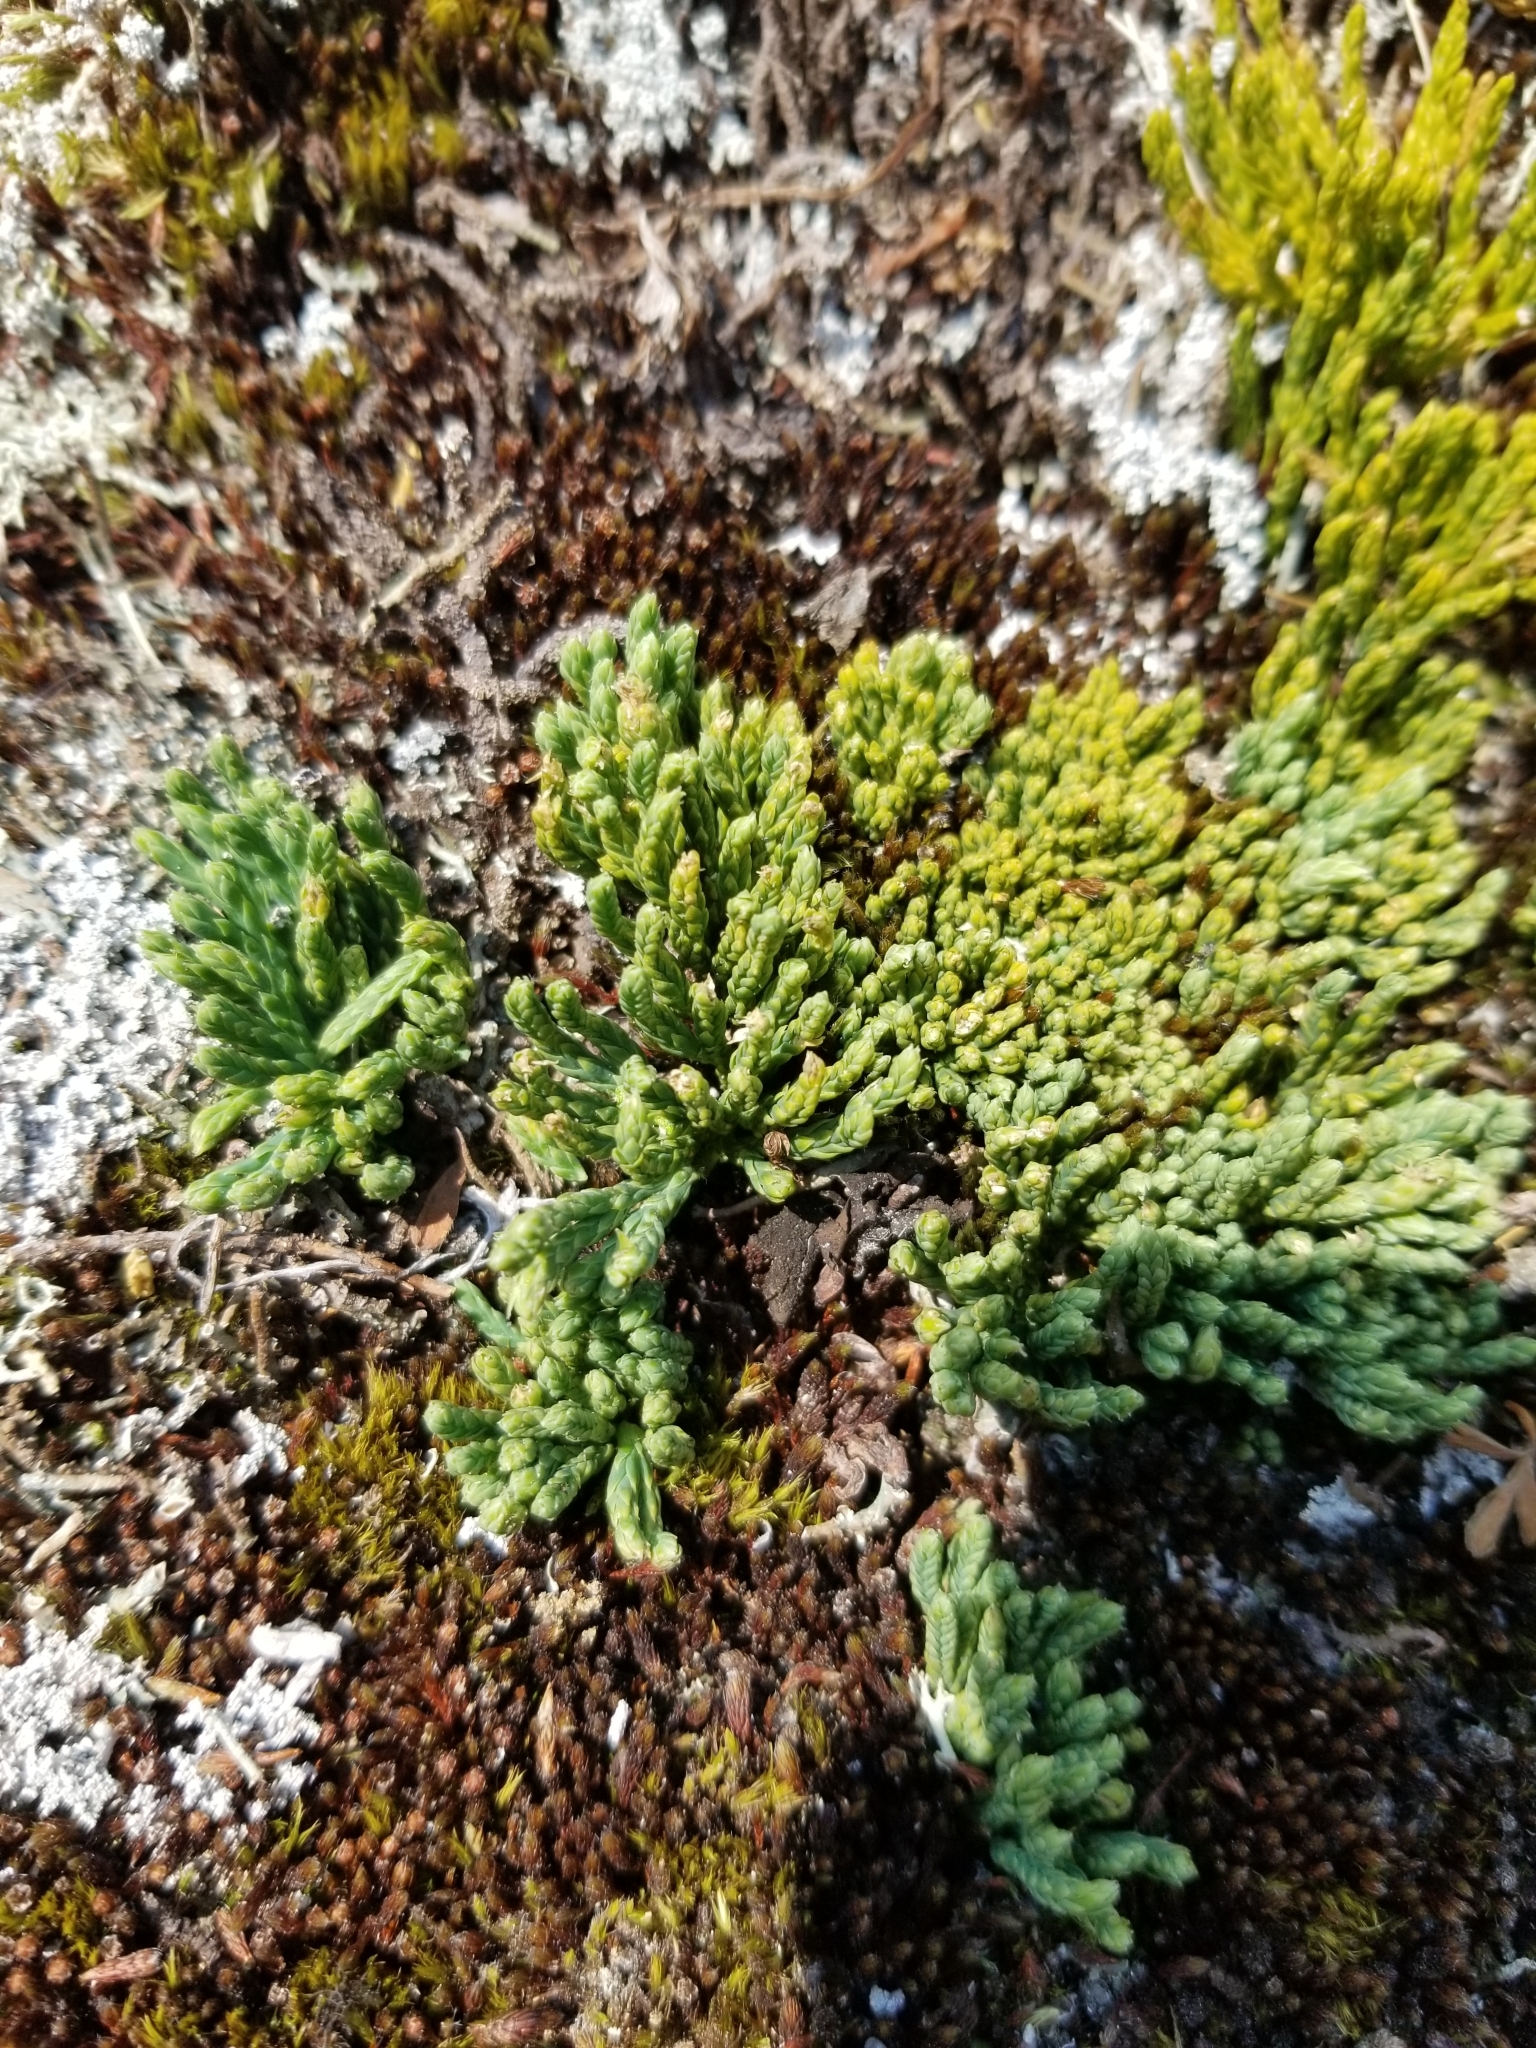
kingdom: Plantae
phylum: Tracheophyta
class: Lycopodiopsida
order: Lycopodiales
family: Lycopodiaceae
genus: Diphasiastrum
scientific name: Diphasiastrum alpinum
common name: Alpine clubmoss
